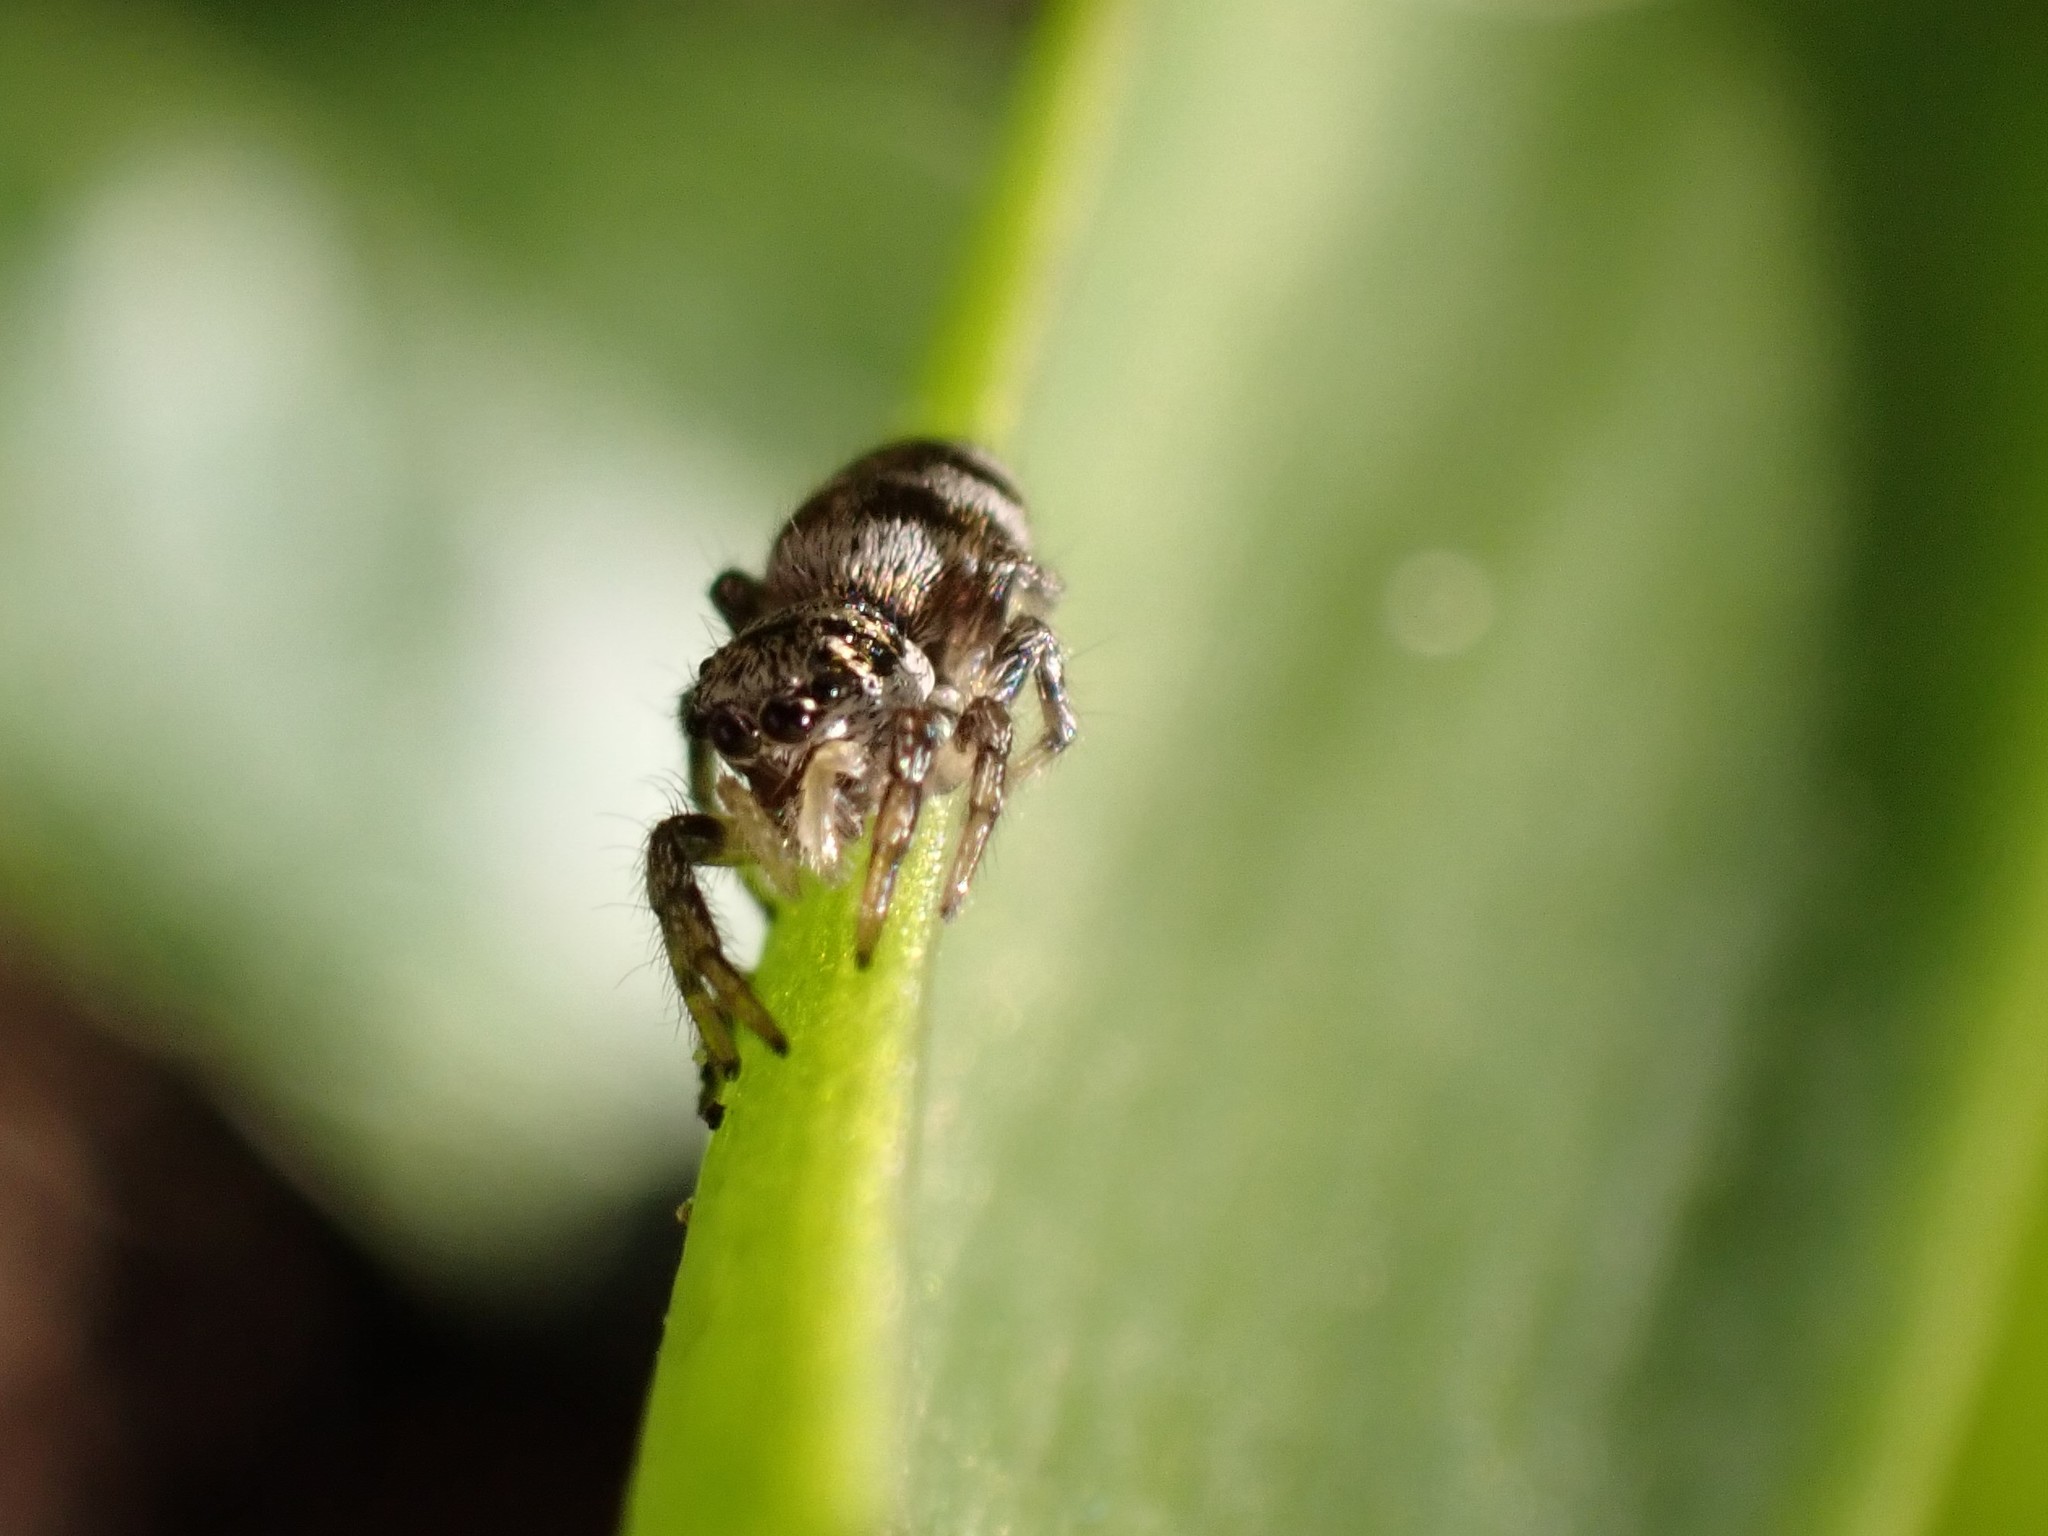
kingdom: Animalia
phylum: Arthropoda
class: Arachnida
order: Araneae
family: Salticidae
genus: Salticus
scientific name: Salticus scenicus
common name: Zebra jumper
